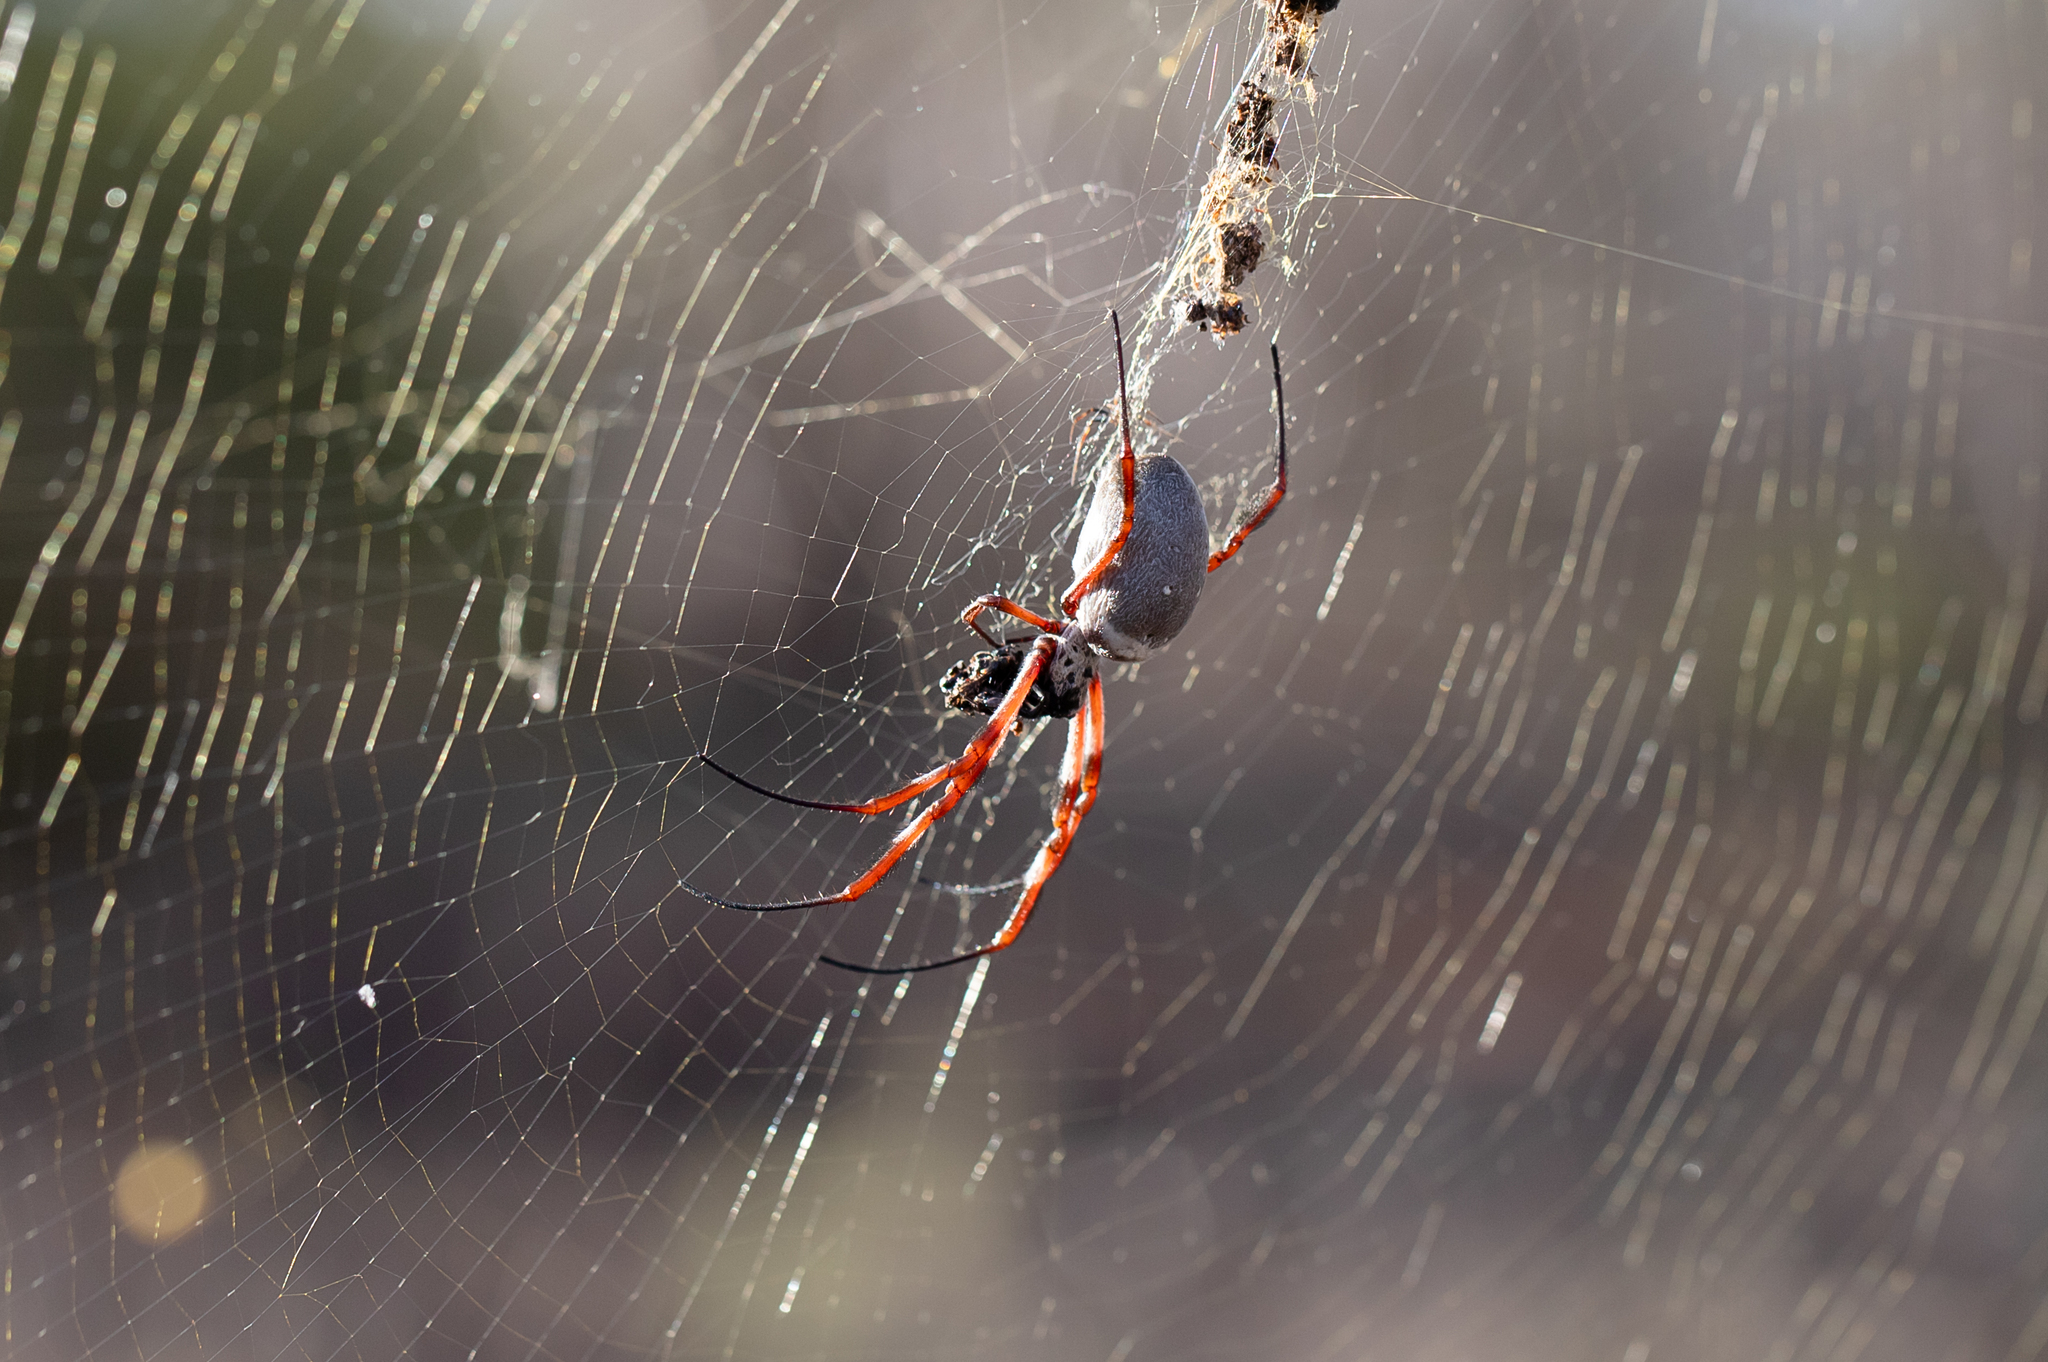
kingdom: Animalia
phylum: Arthropoda
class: Arachnida
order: Araneae
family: Araneidae
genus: Trichonephila
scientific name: Trichonephila edulis
